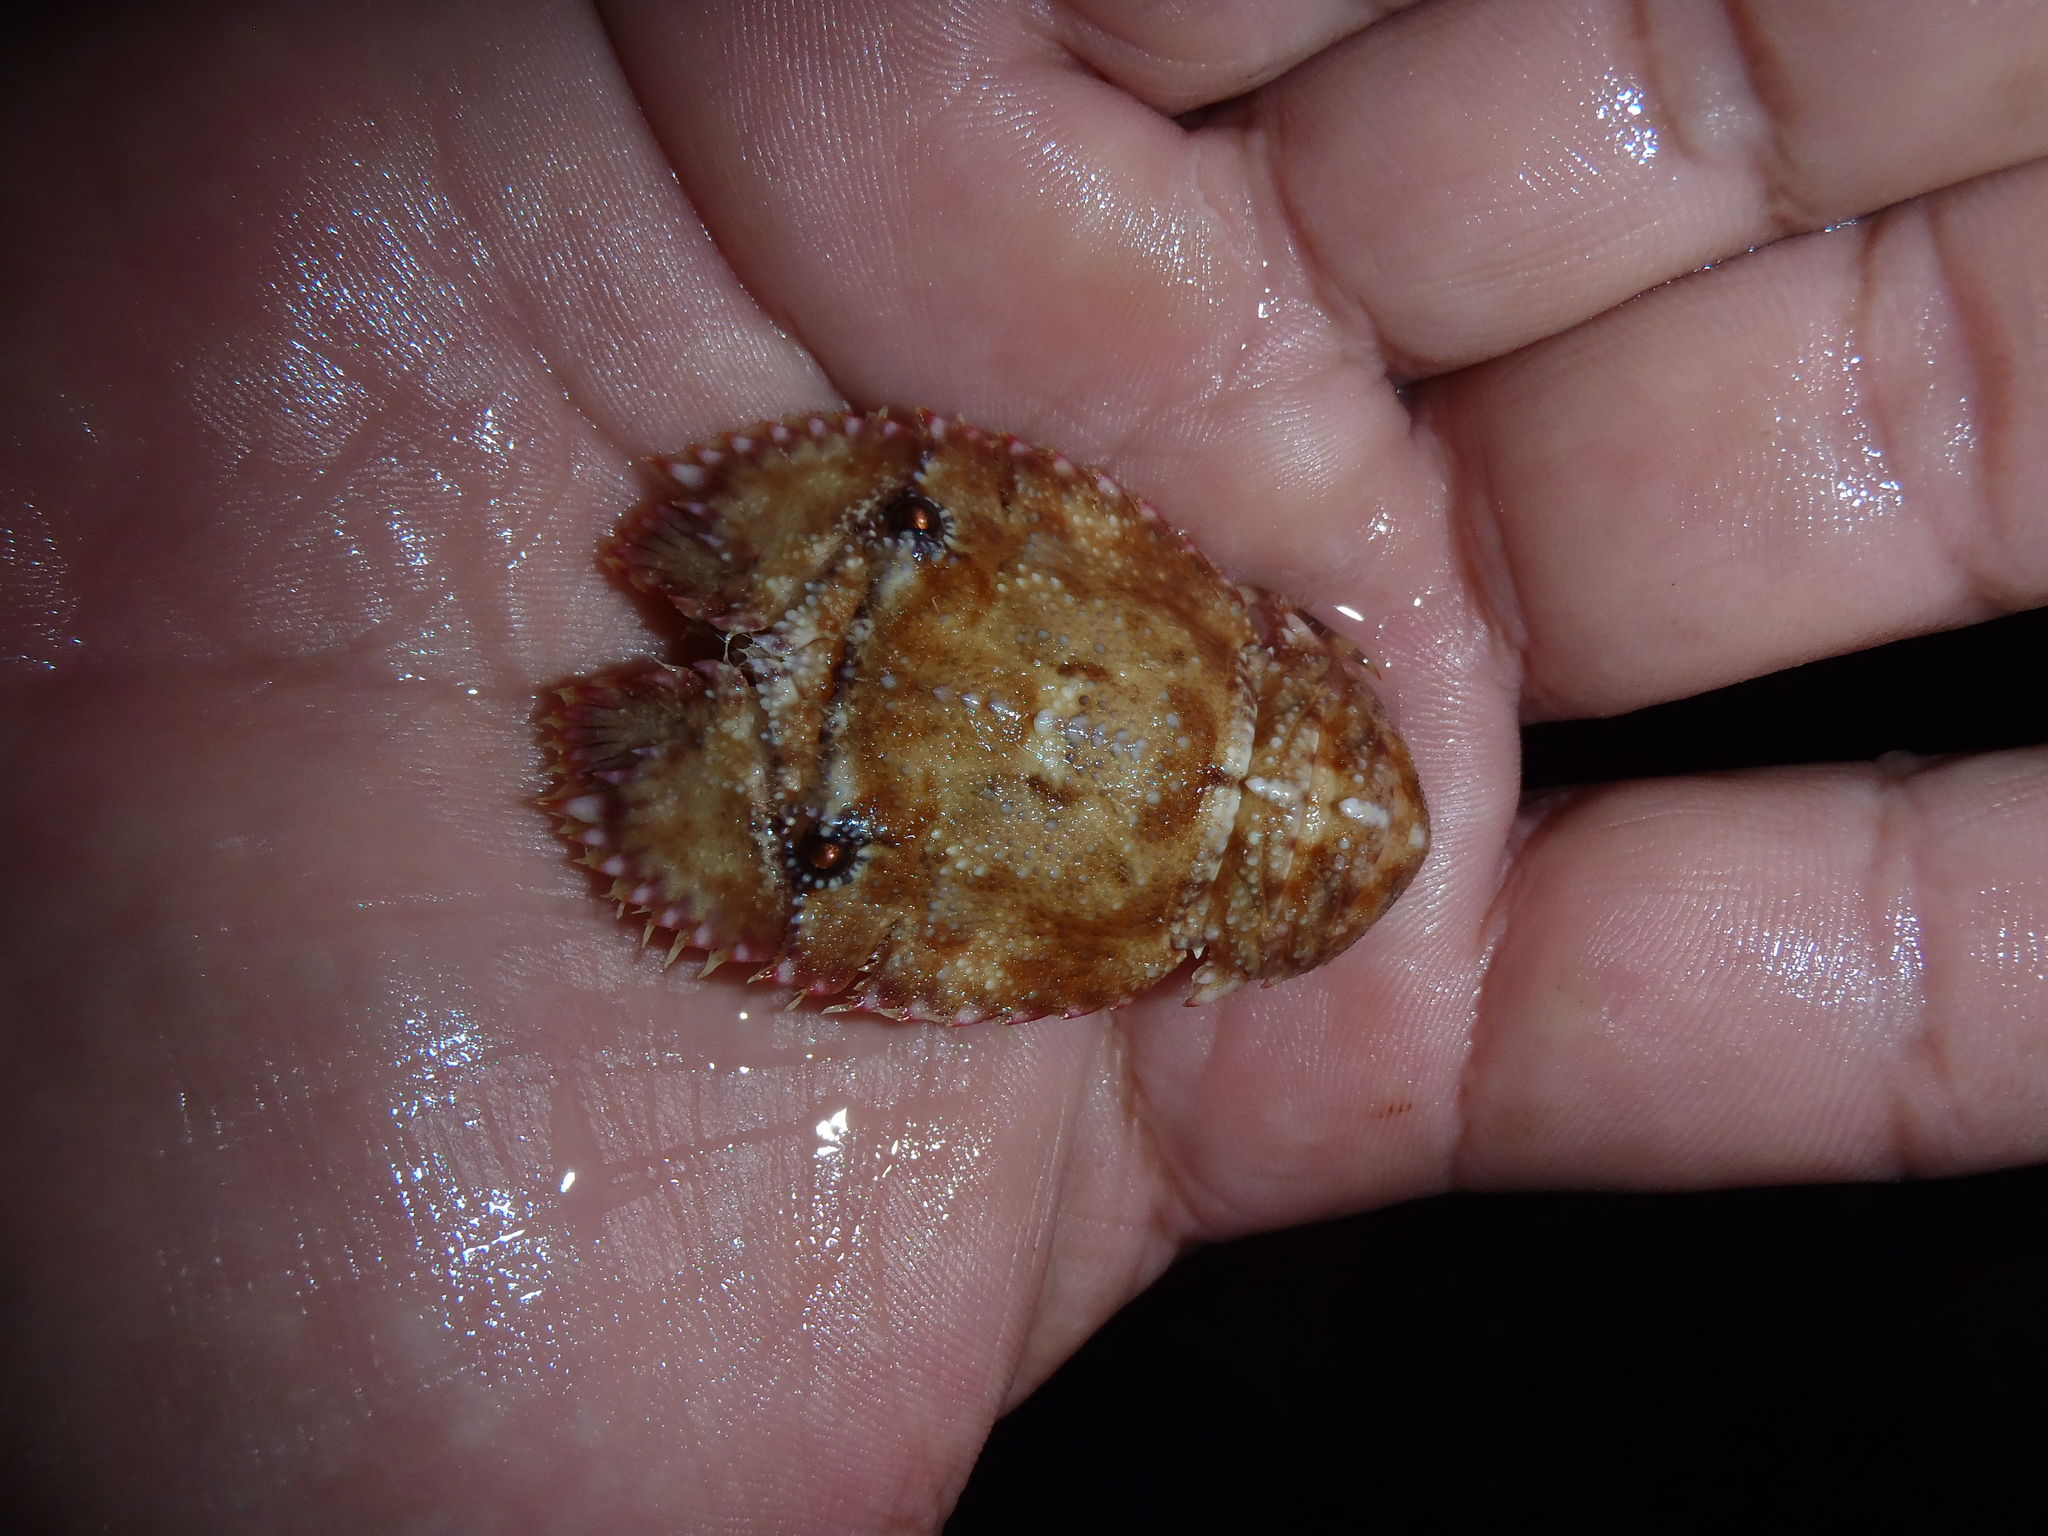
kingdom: Animalia
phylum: Arthropoda
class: Malacostraca
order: Decapoda
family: Scyllaridae
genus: Parribacus
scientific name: Parribacus antarcticus
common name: Sculptured mitten lobster
